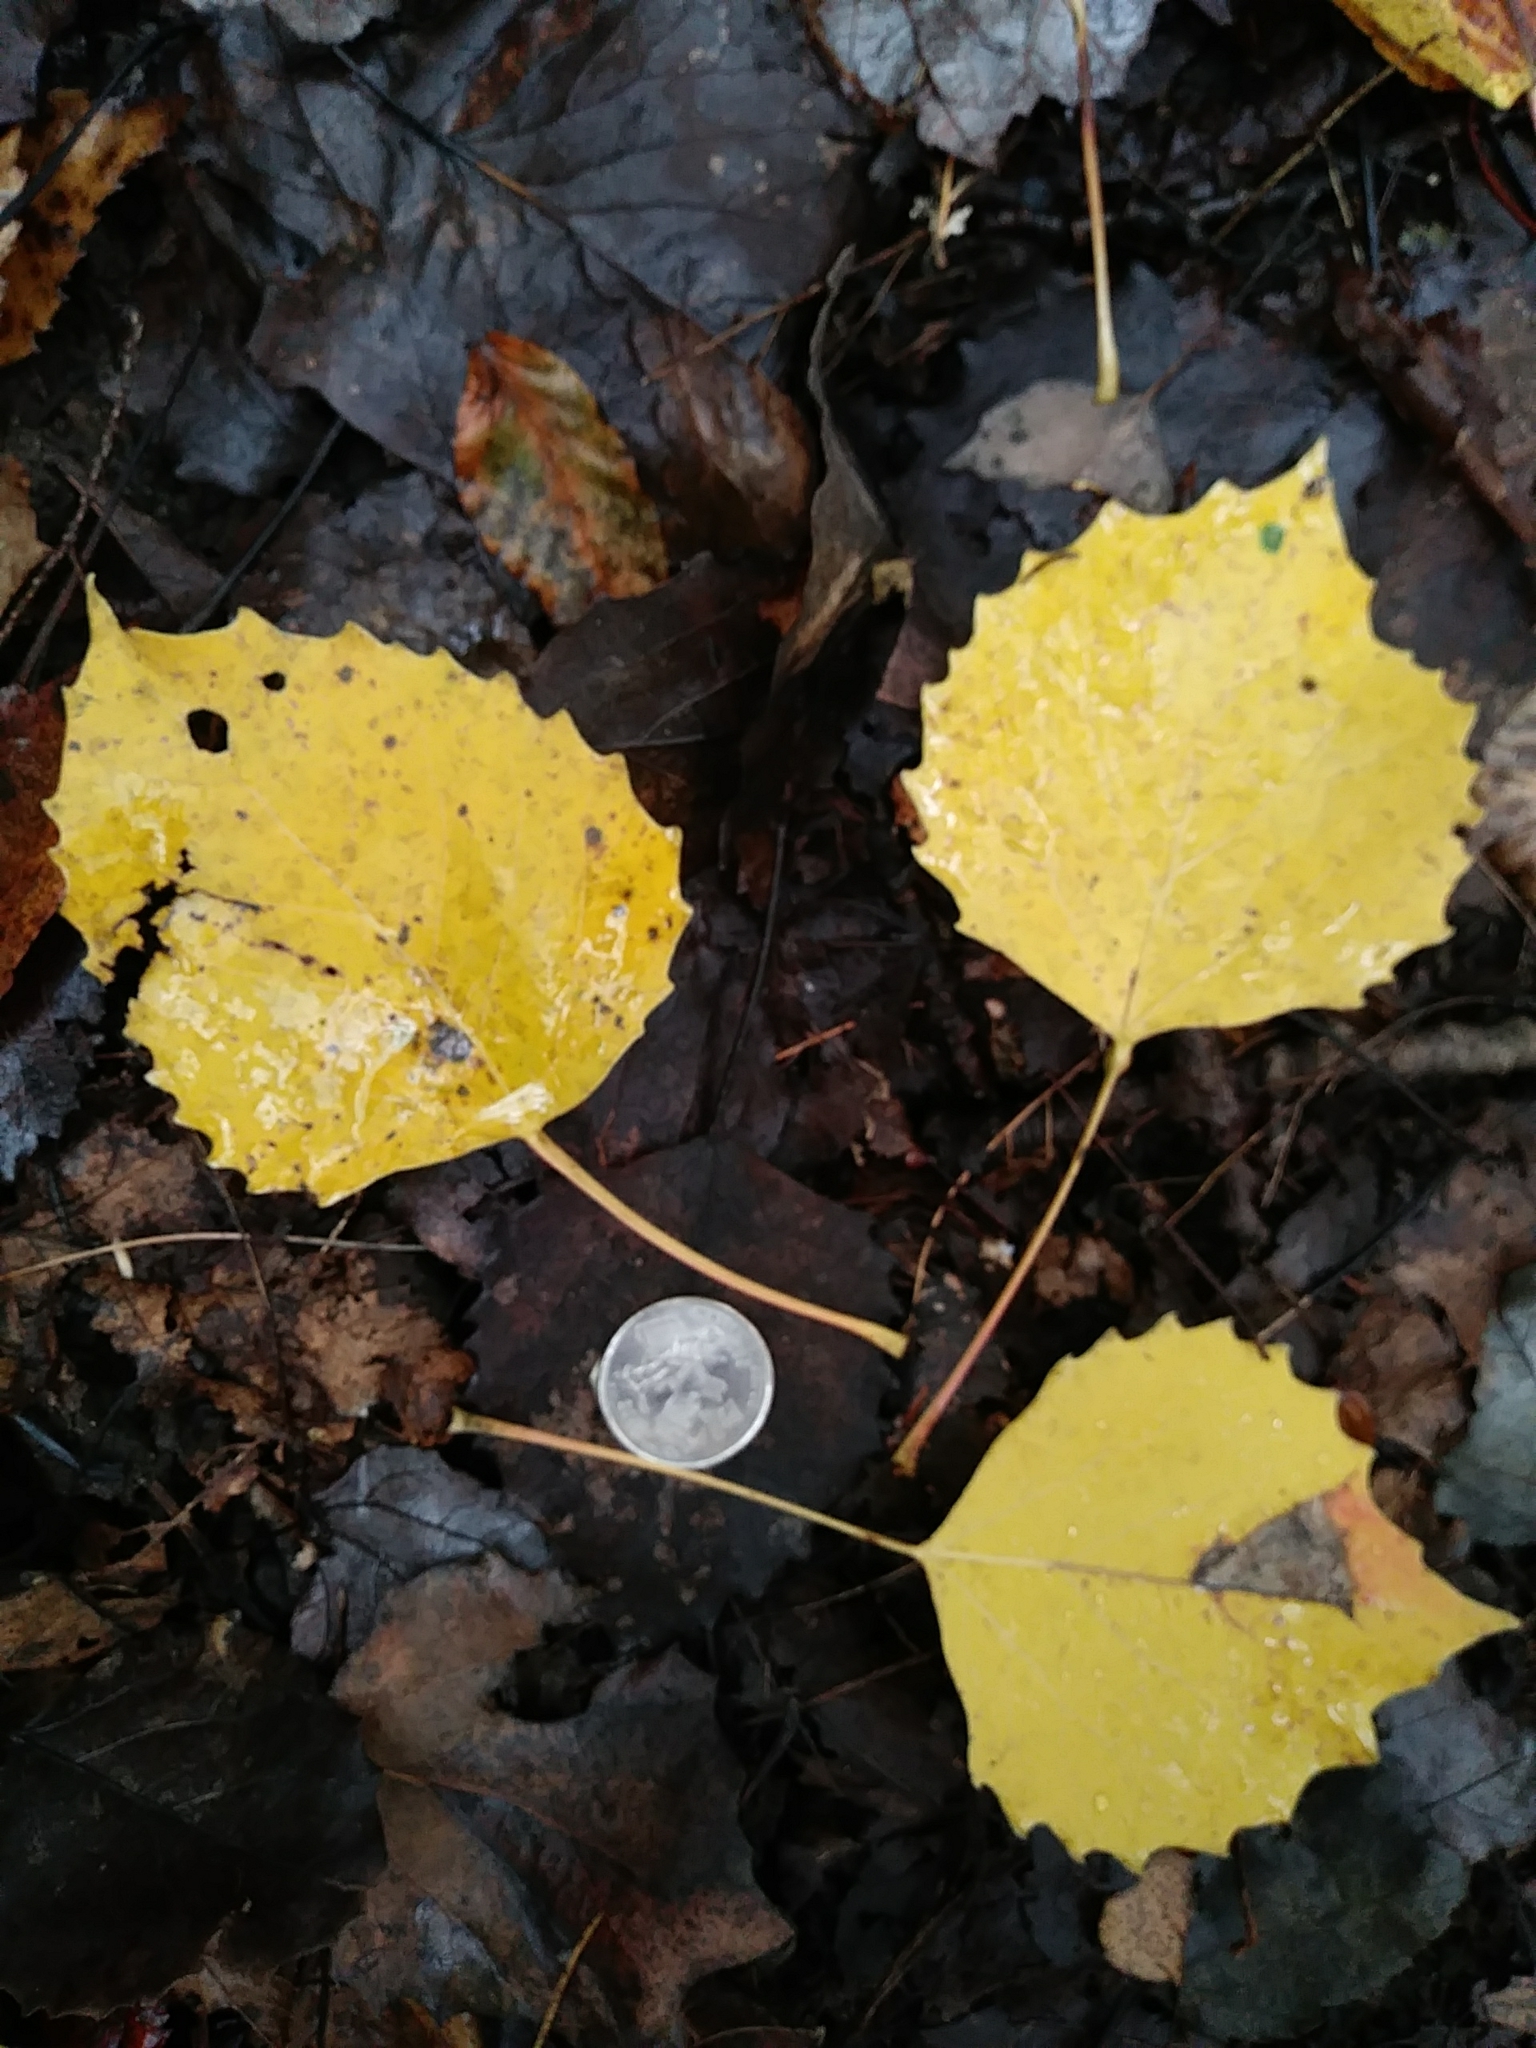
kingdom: Plantae
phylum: Tracheophyta
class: Magnoliopsida
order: Malpighiales
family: Salicaceae
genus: Populus
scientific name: Populus grandidentata
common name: Bigtooth aspen
